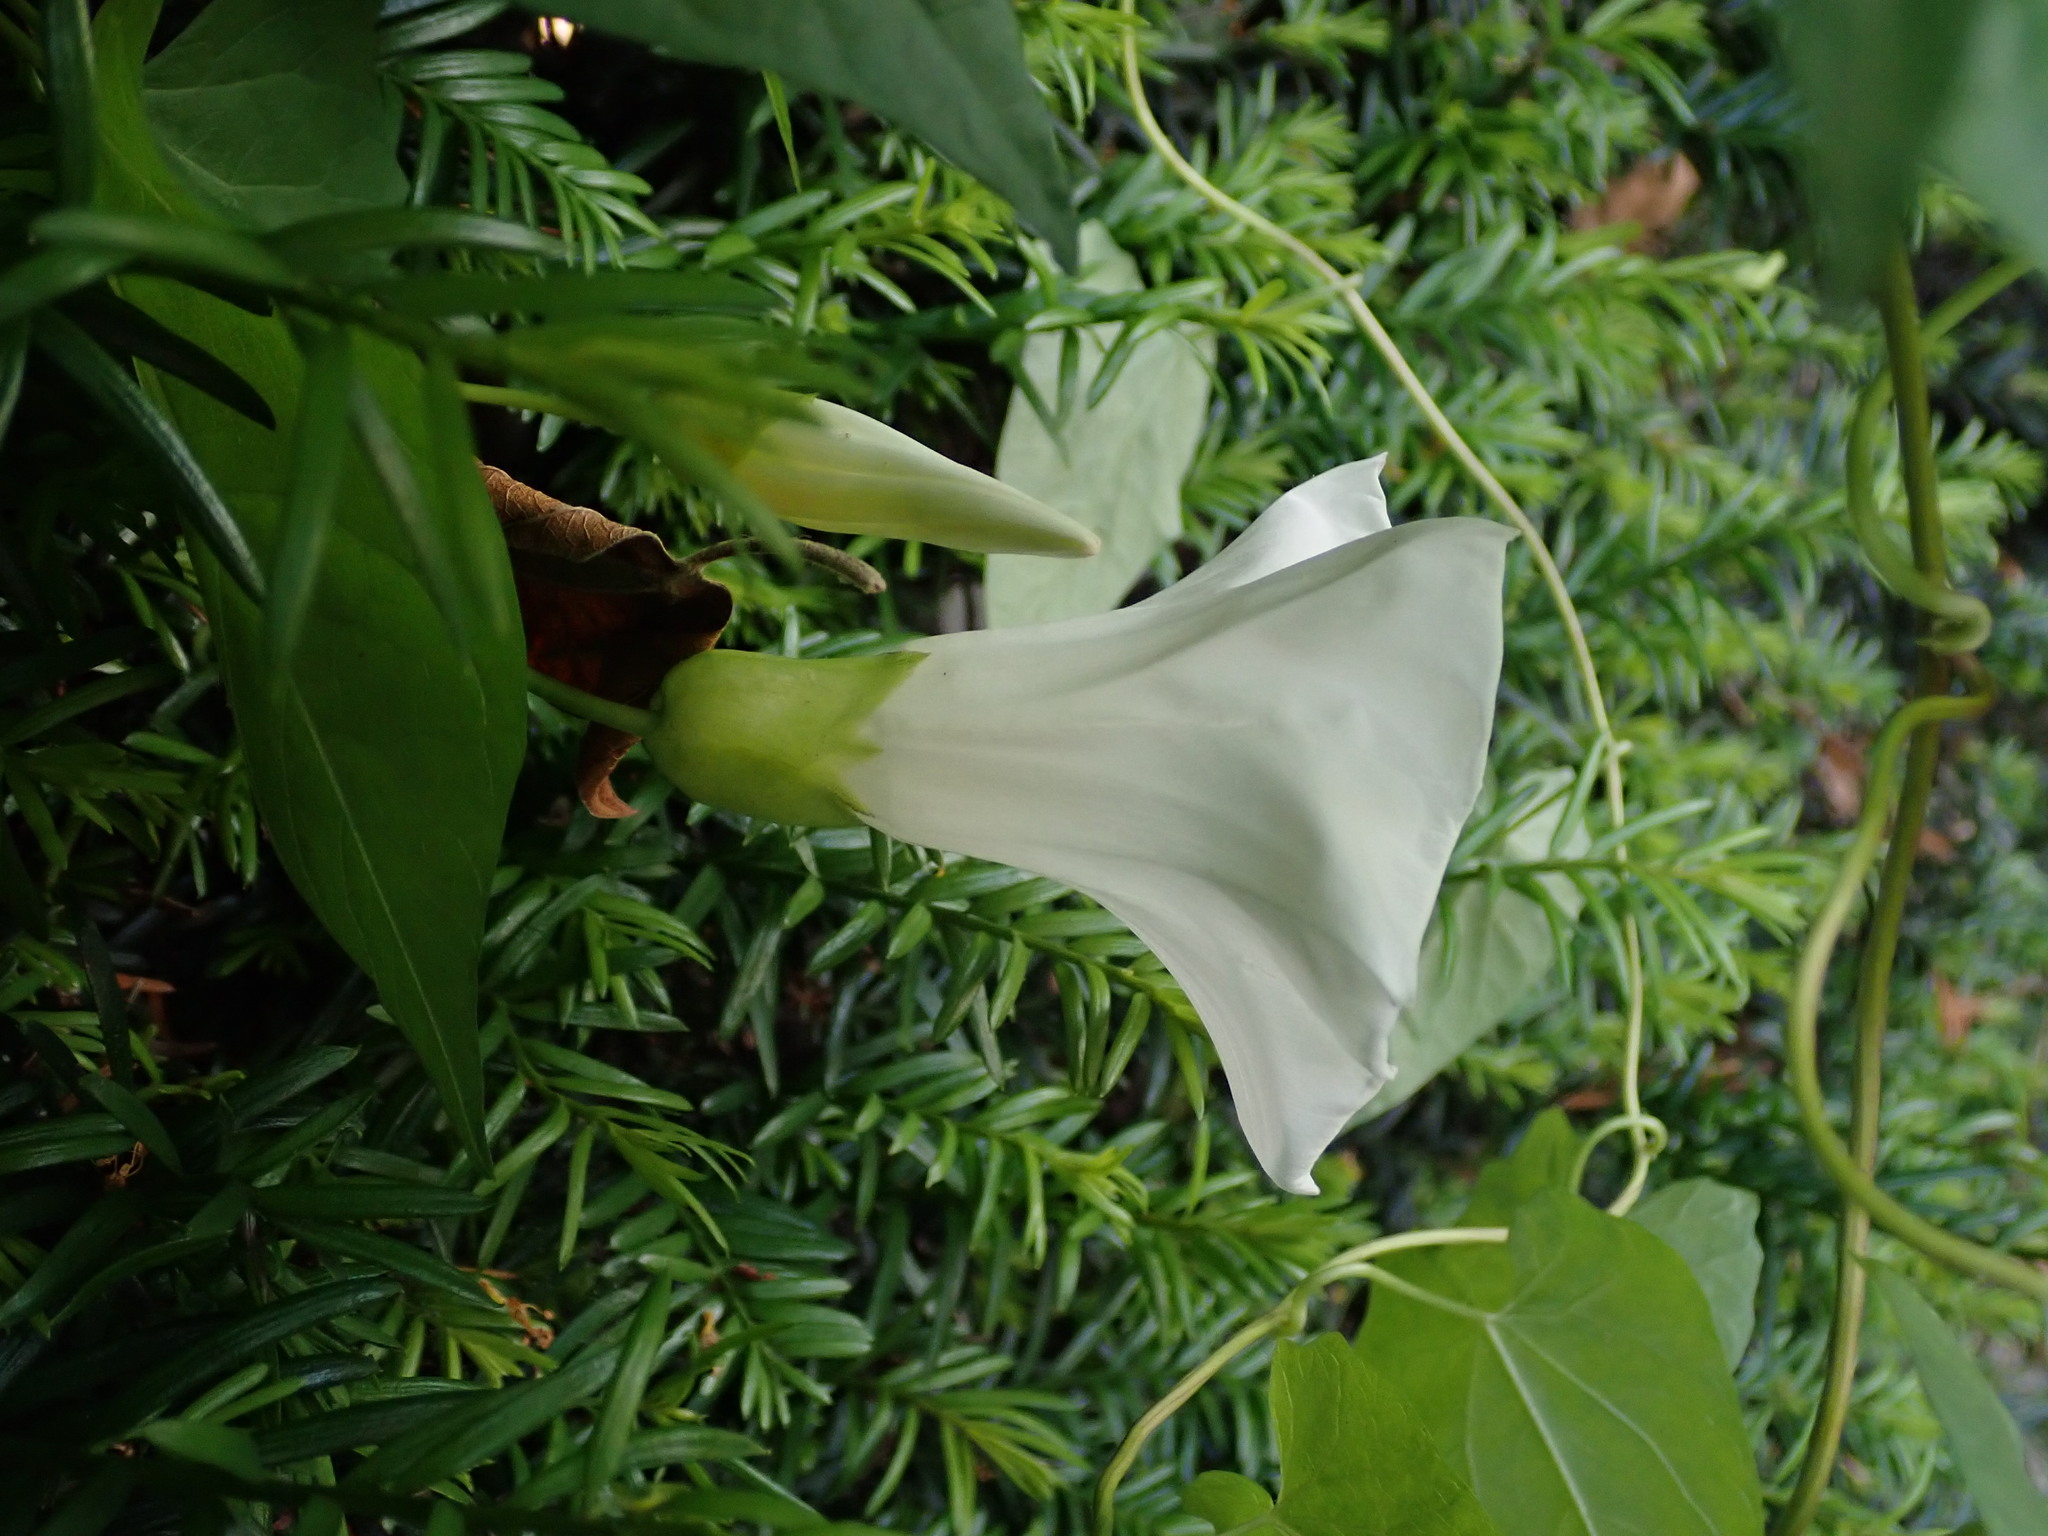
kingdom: Plantae
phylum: Tracheophyta
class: Magnoliopsida
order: Solanales
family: Convolvulaceae
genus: Calystegia
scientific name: Calystegia silvatica
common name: Large bindweed
